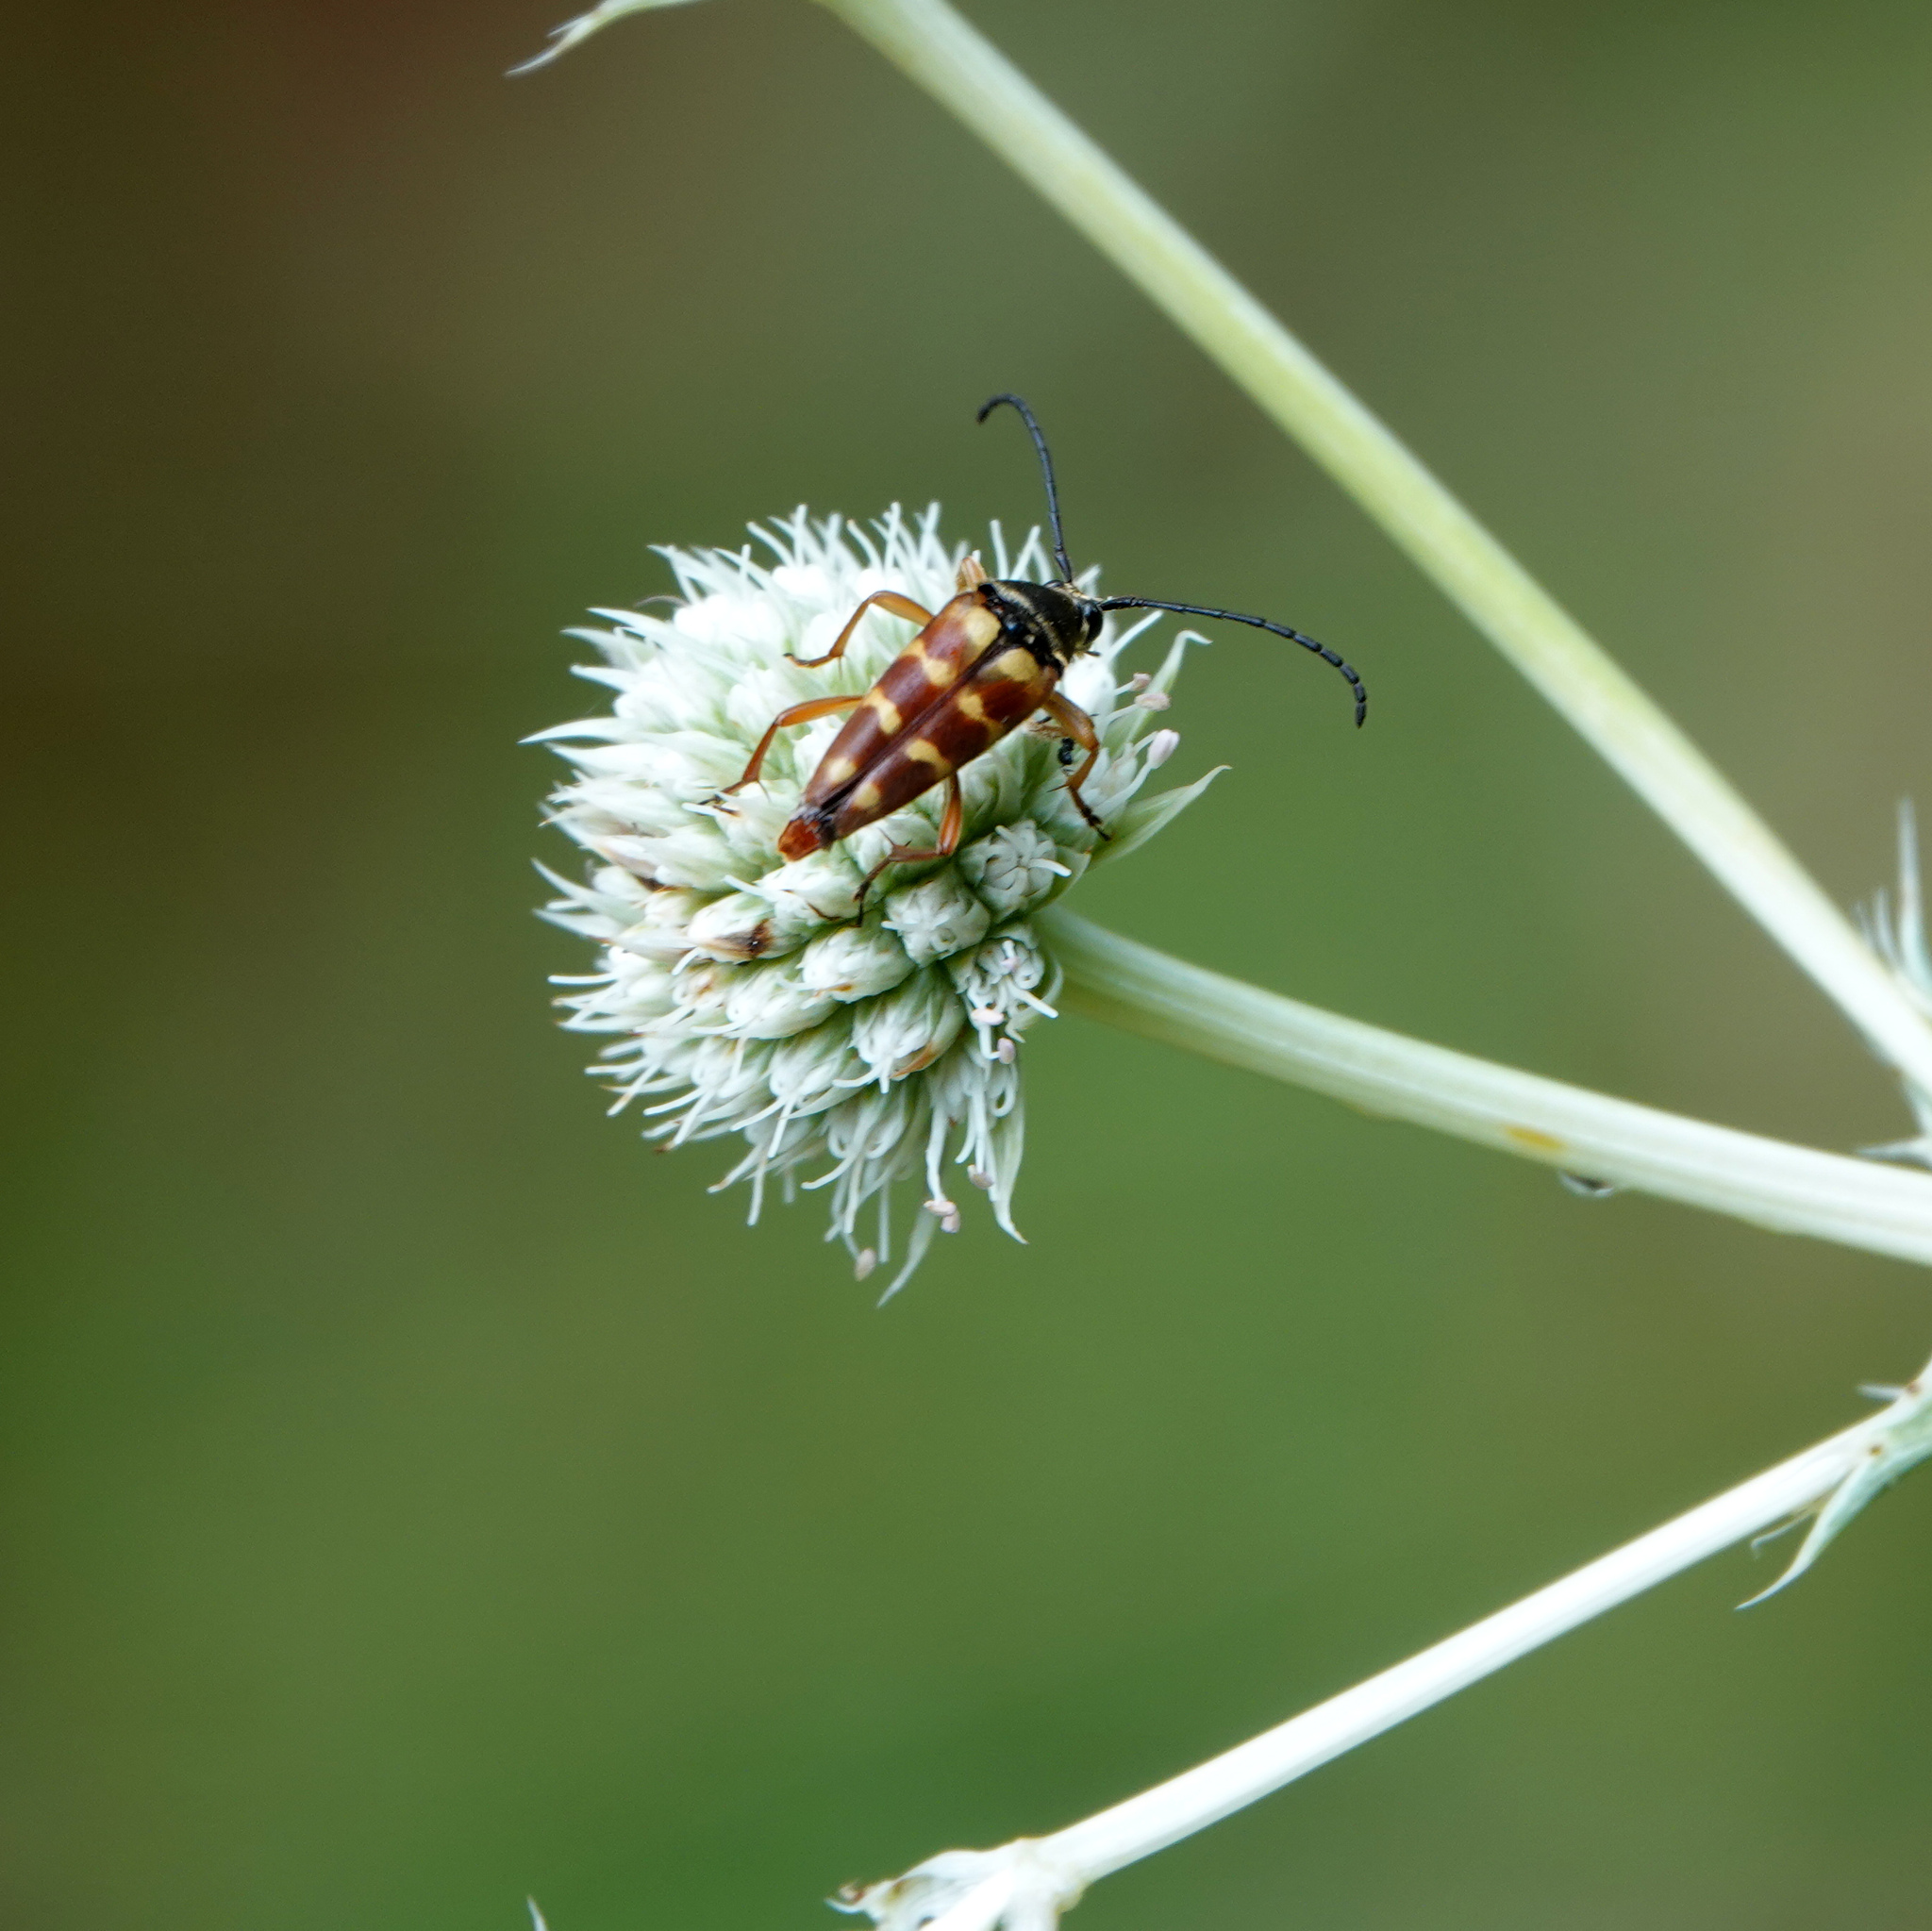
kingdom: Animalia
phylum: Arthropoda
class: Insecta
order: Coleoptera
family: Cerambycidae
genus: Typocerus
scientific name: Typocerus velutinus
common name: Banded longhorn beetle
